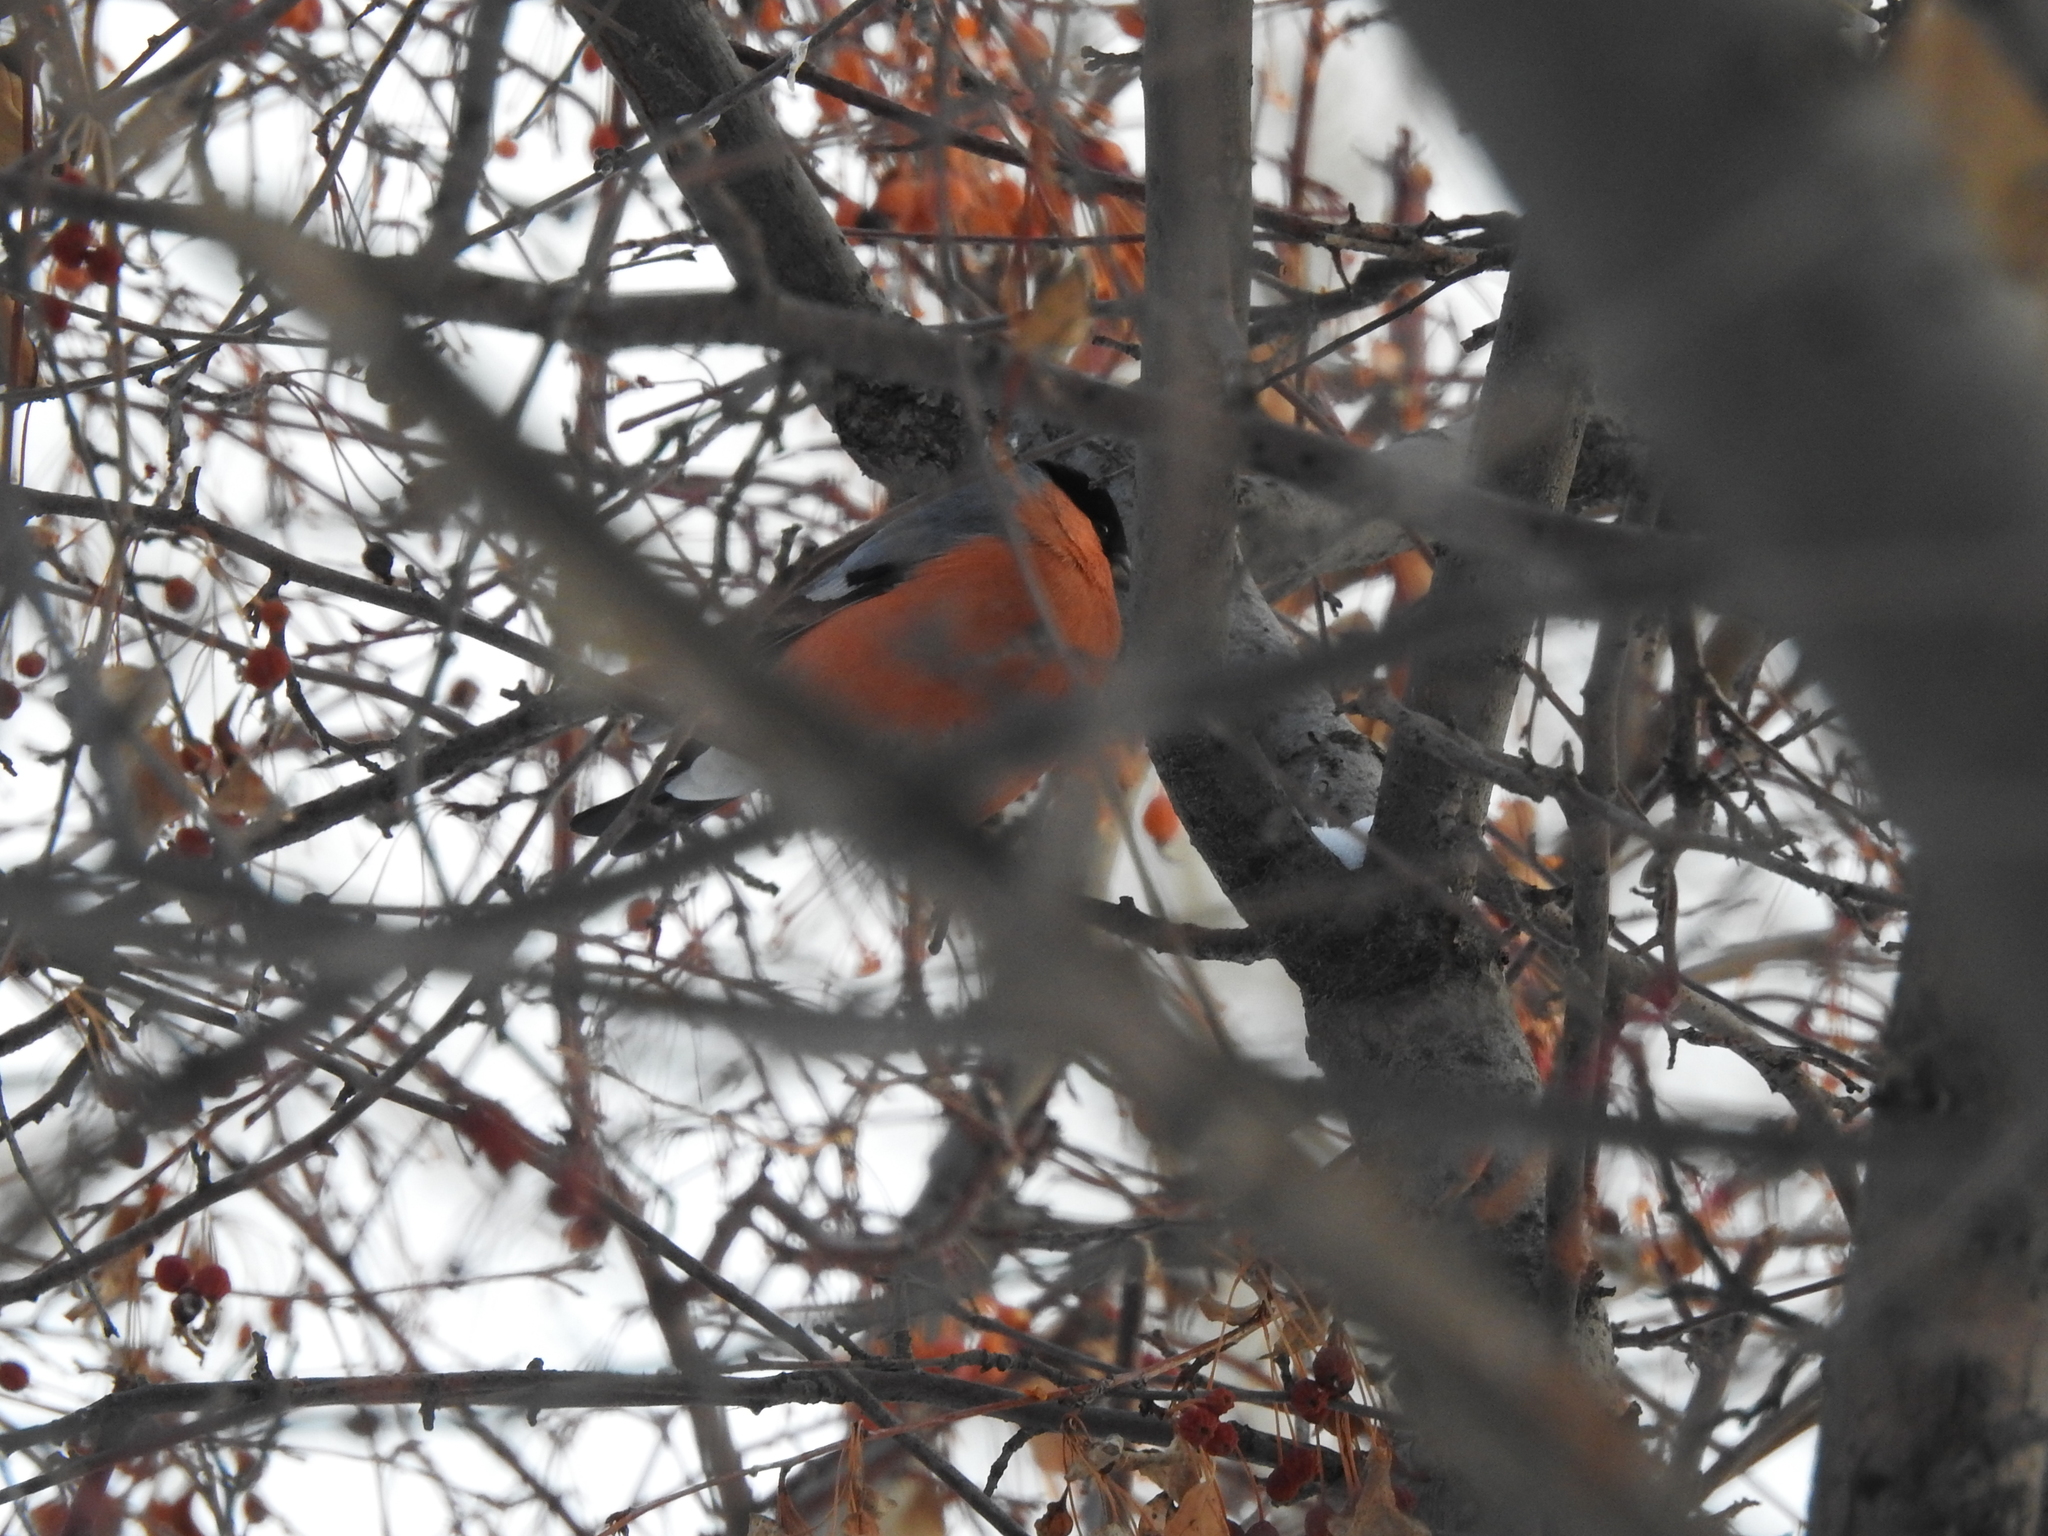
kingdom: Animalia
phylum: Chordata
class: Aves
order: Passeriformes
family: Fringillidae
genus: Pyrrhula
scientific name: Pyrrhula pyrrhula
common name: Eurasian bullfinch
